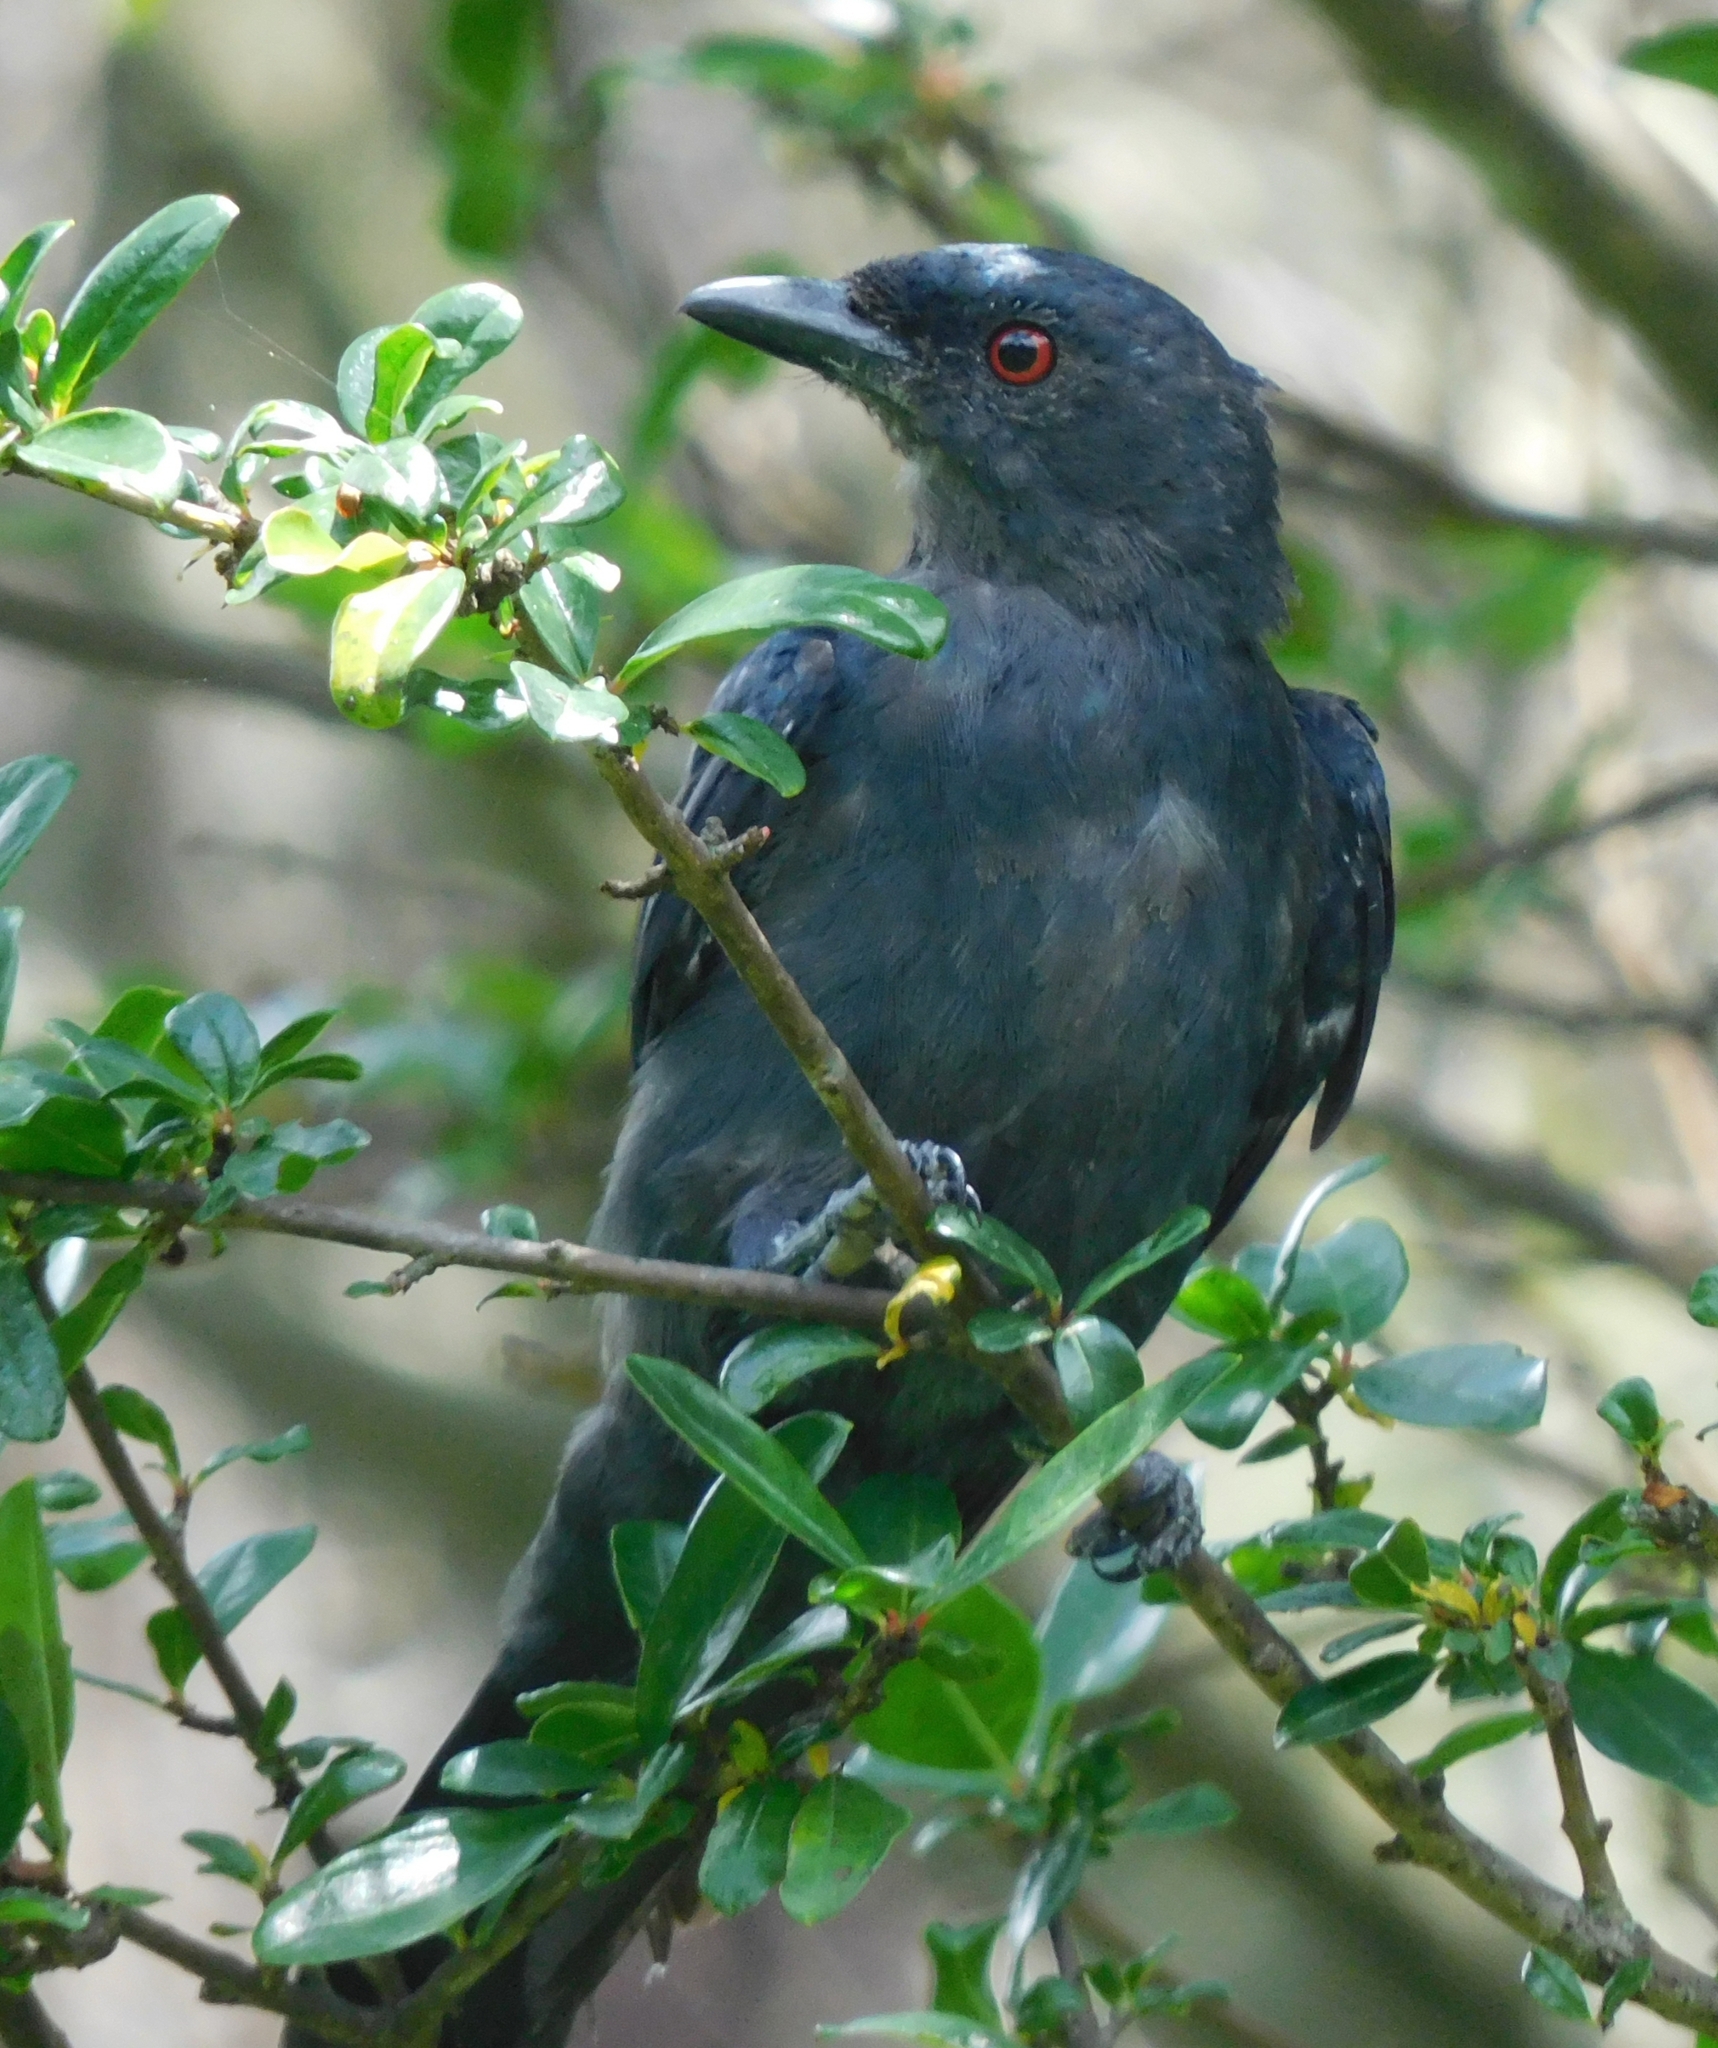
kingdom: Animalia
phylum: Chordata
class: Aves
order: Passeriformes
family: Dicruridae
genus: Dicrurus
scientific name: Dicrurus leucophaeus
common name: Ashy drongo
